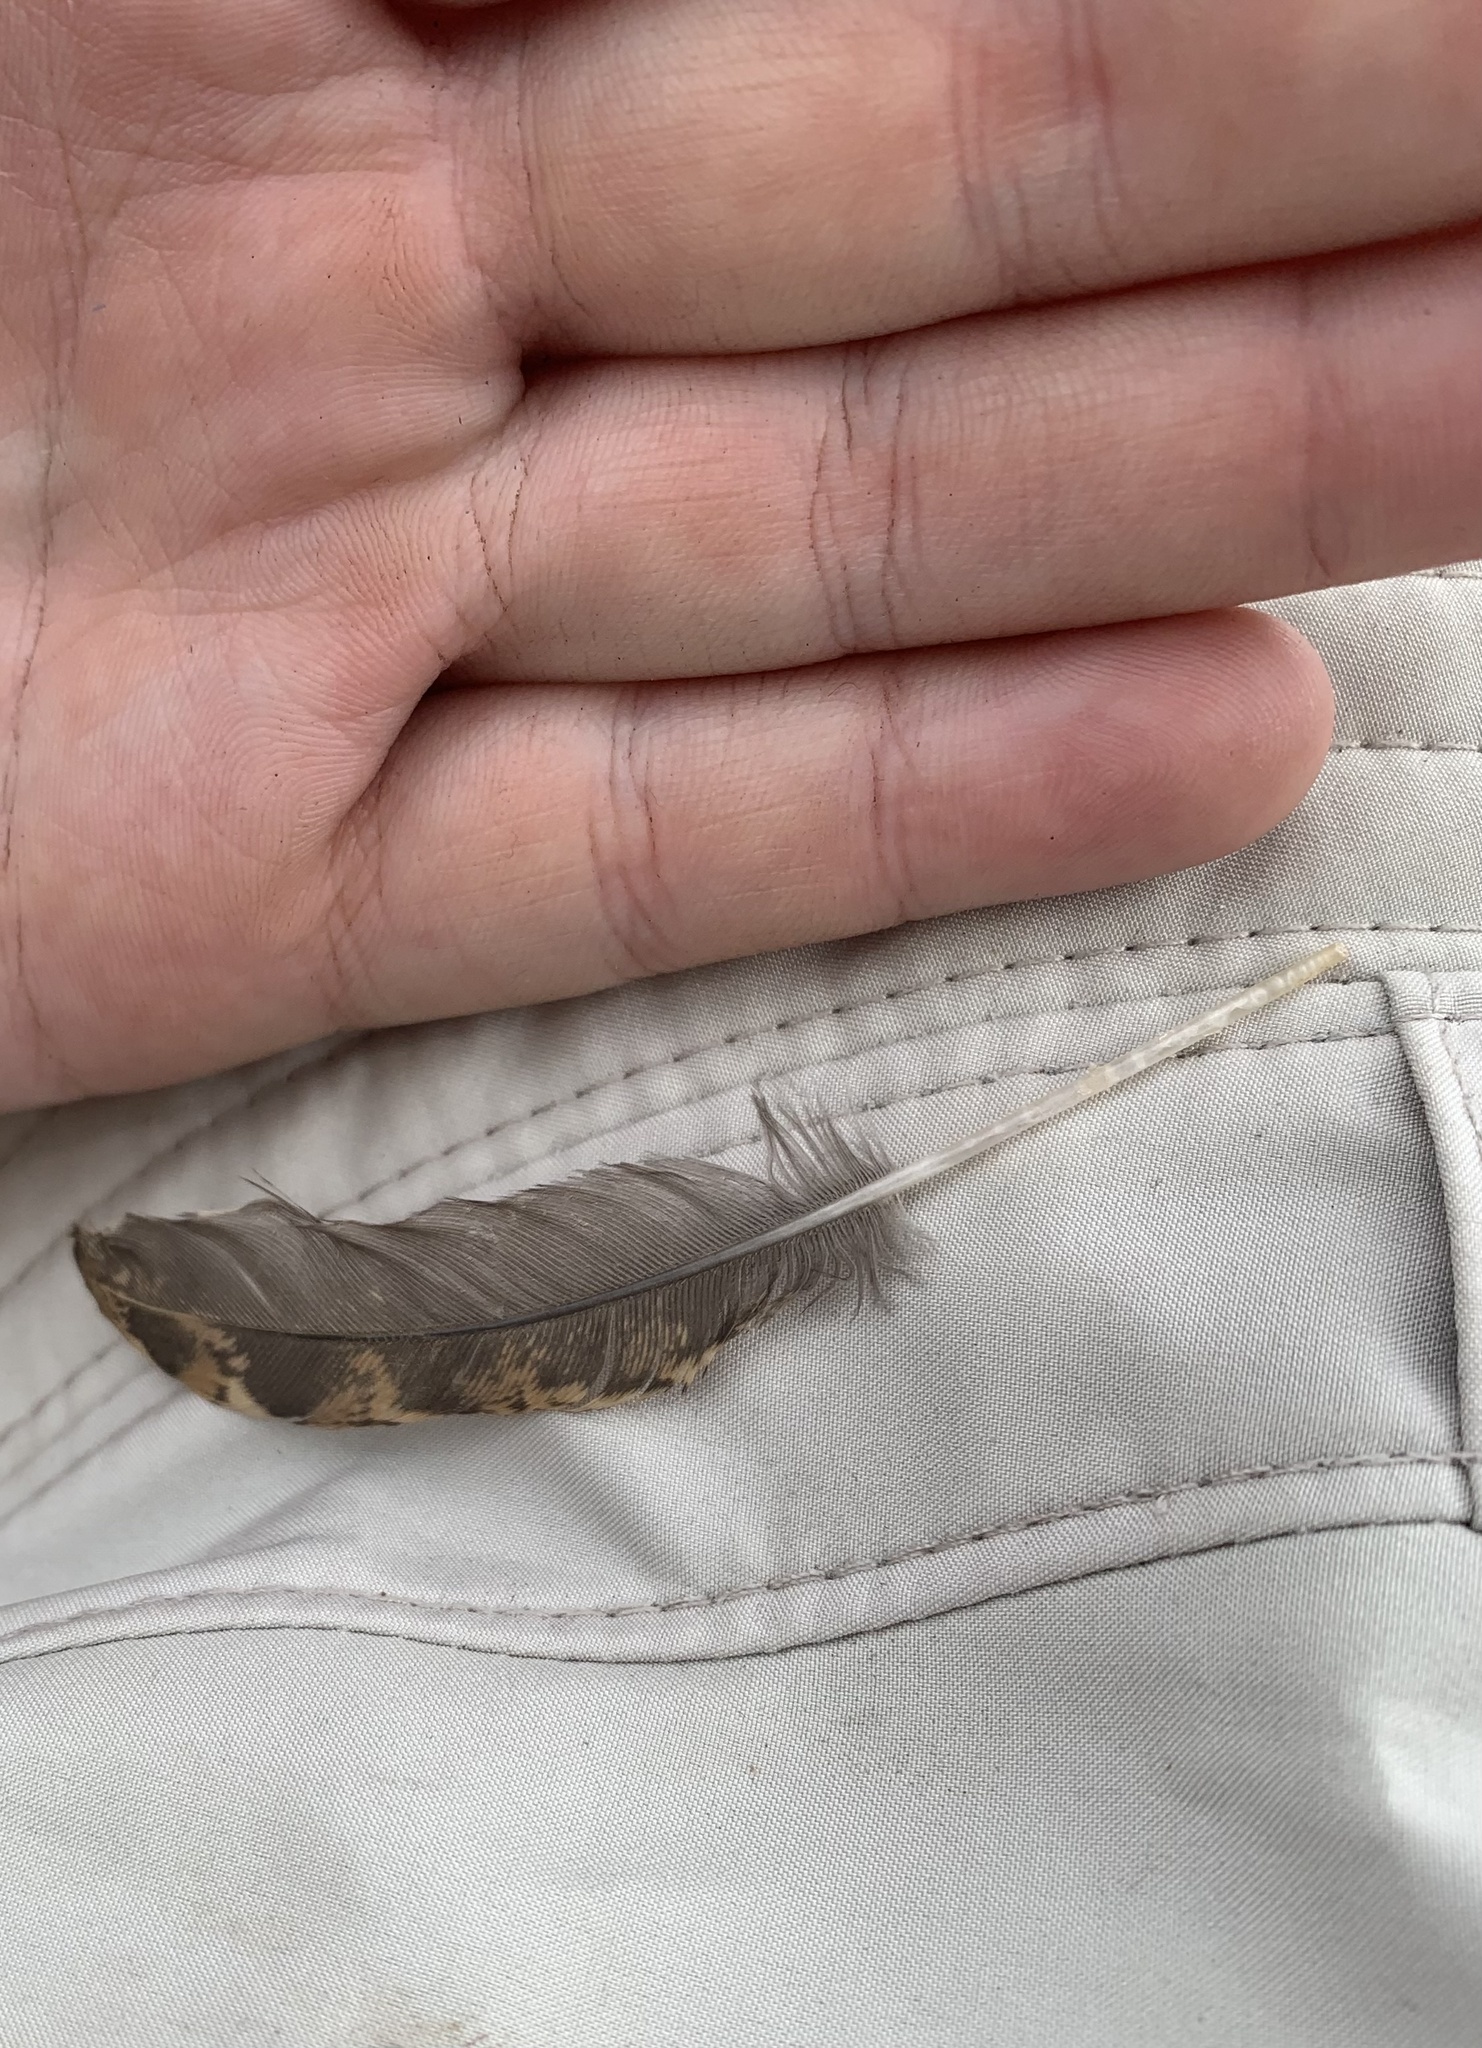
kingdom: Animalia
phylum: Chordata
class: Aves
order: Galliformes
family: Phasianidae
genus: Bonasa
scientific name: Bonasa umbellus
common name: Ruffed grouse
